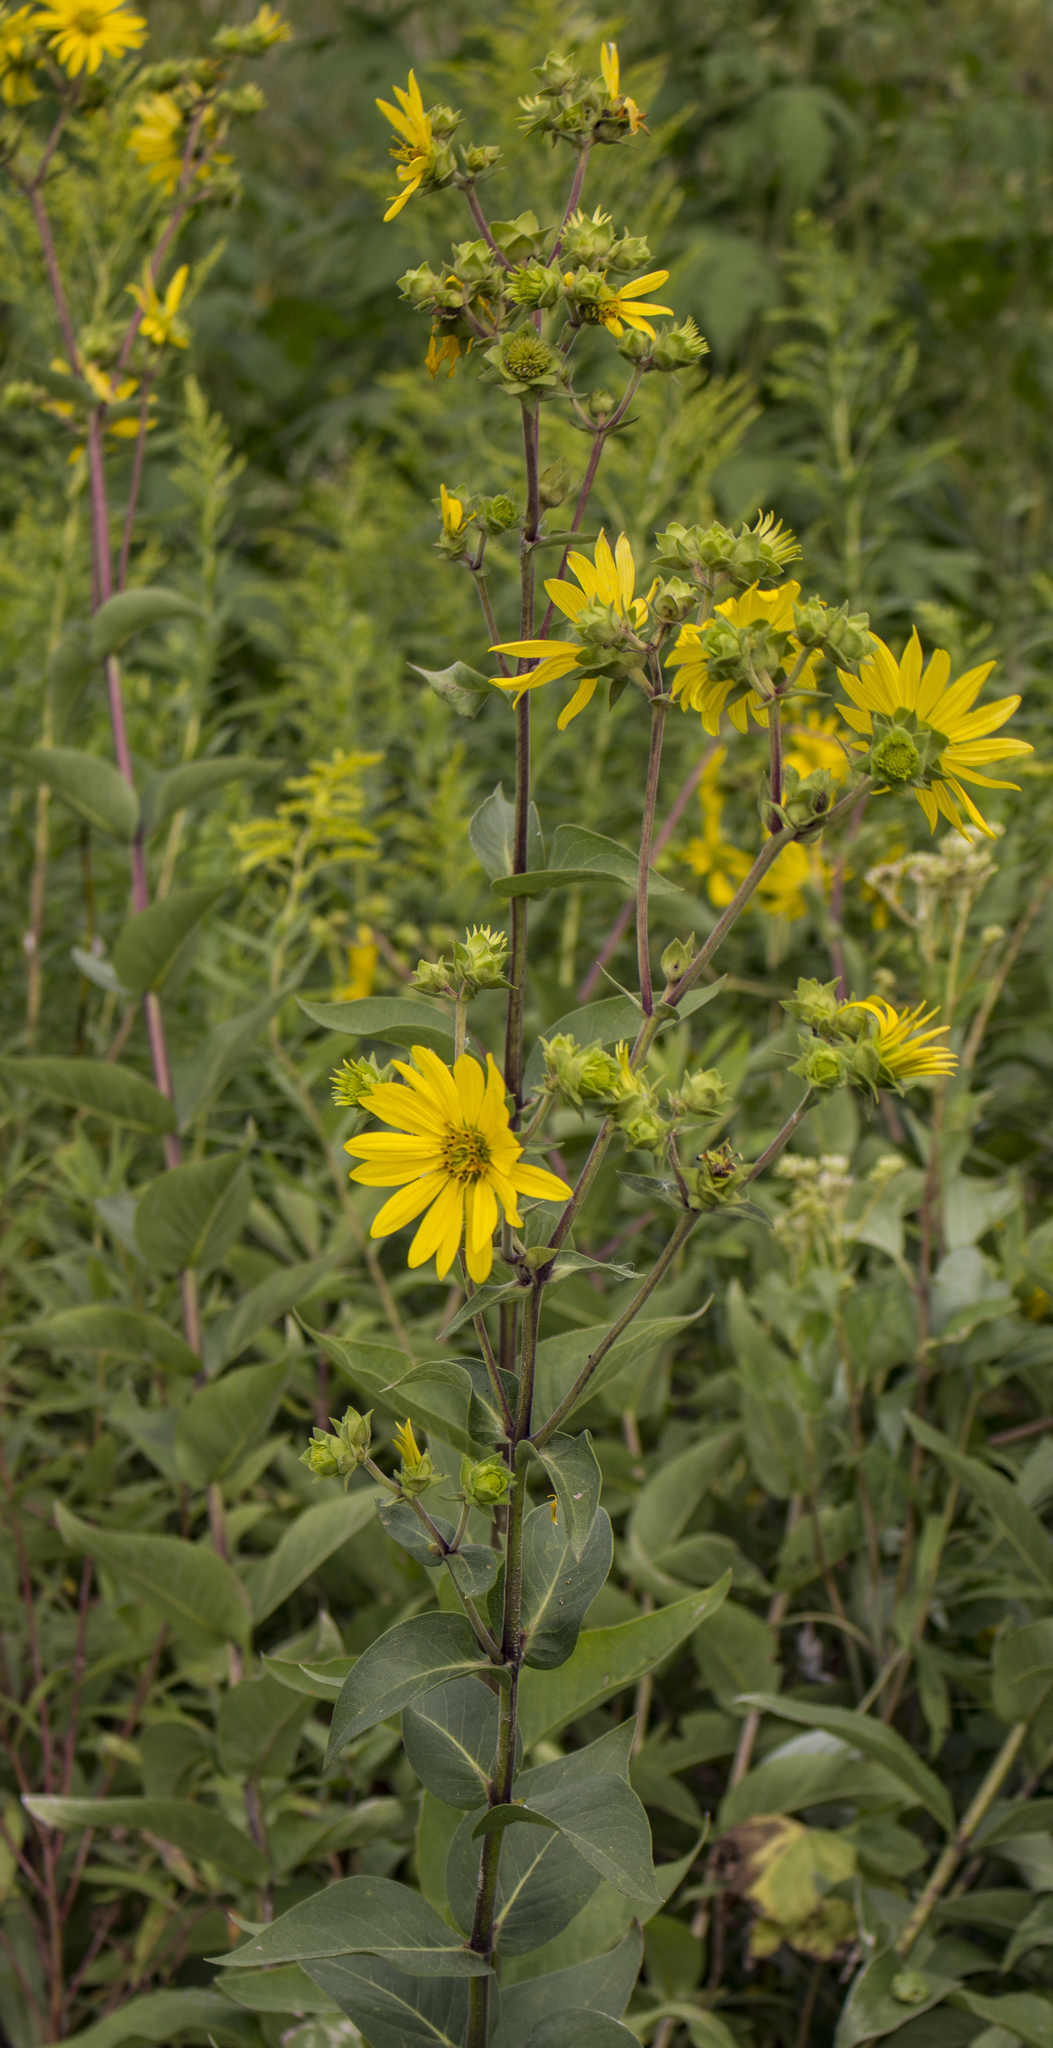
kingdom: Plantae
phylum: Tracheophyta
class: Magnoliopsida
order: Asterales
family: Asteraceae
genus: Silphium
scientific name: Silphium integrifolium
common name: Whole-leaf rosinweed
